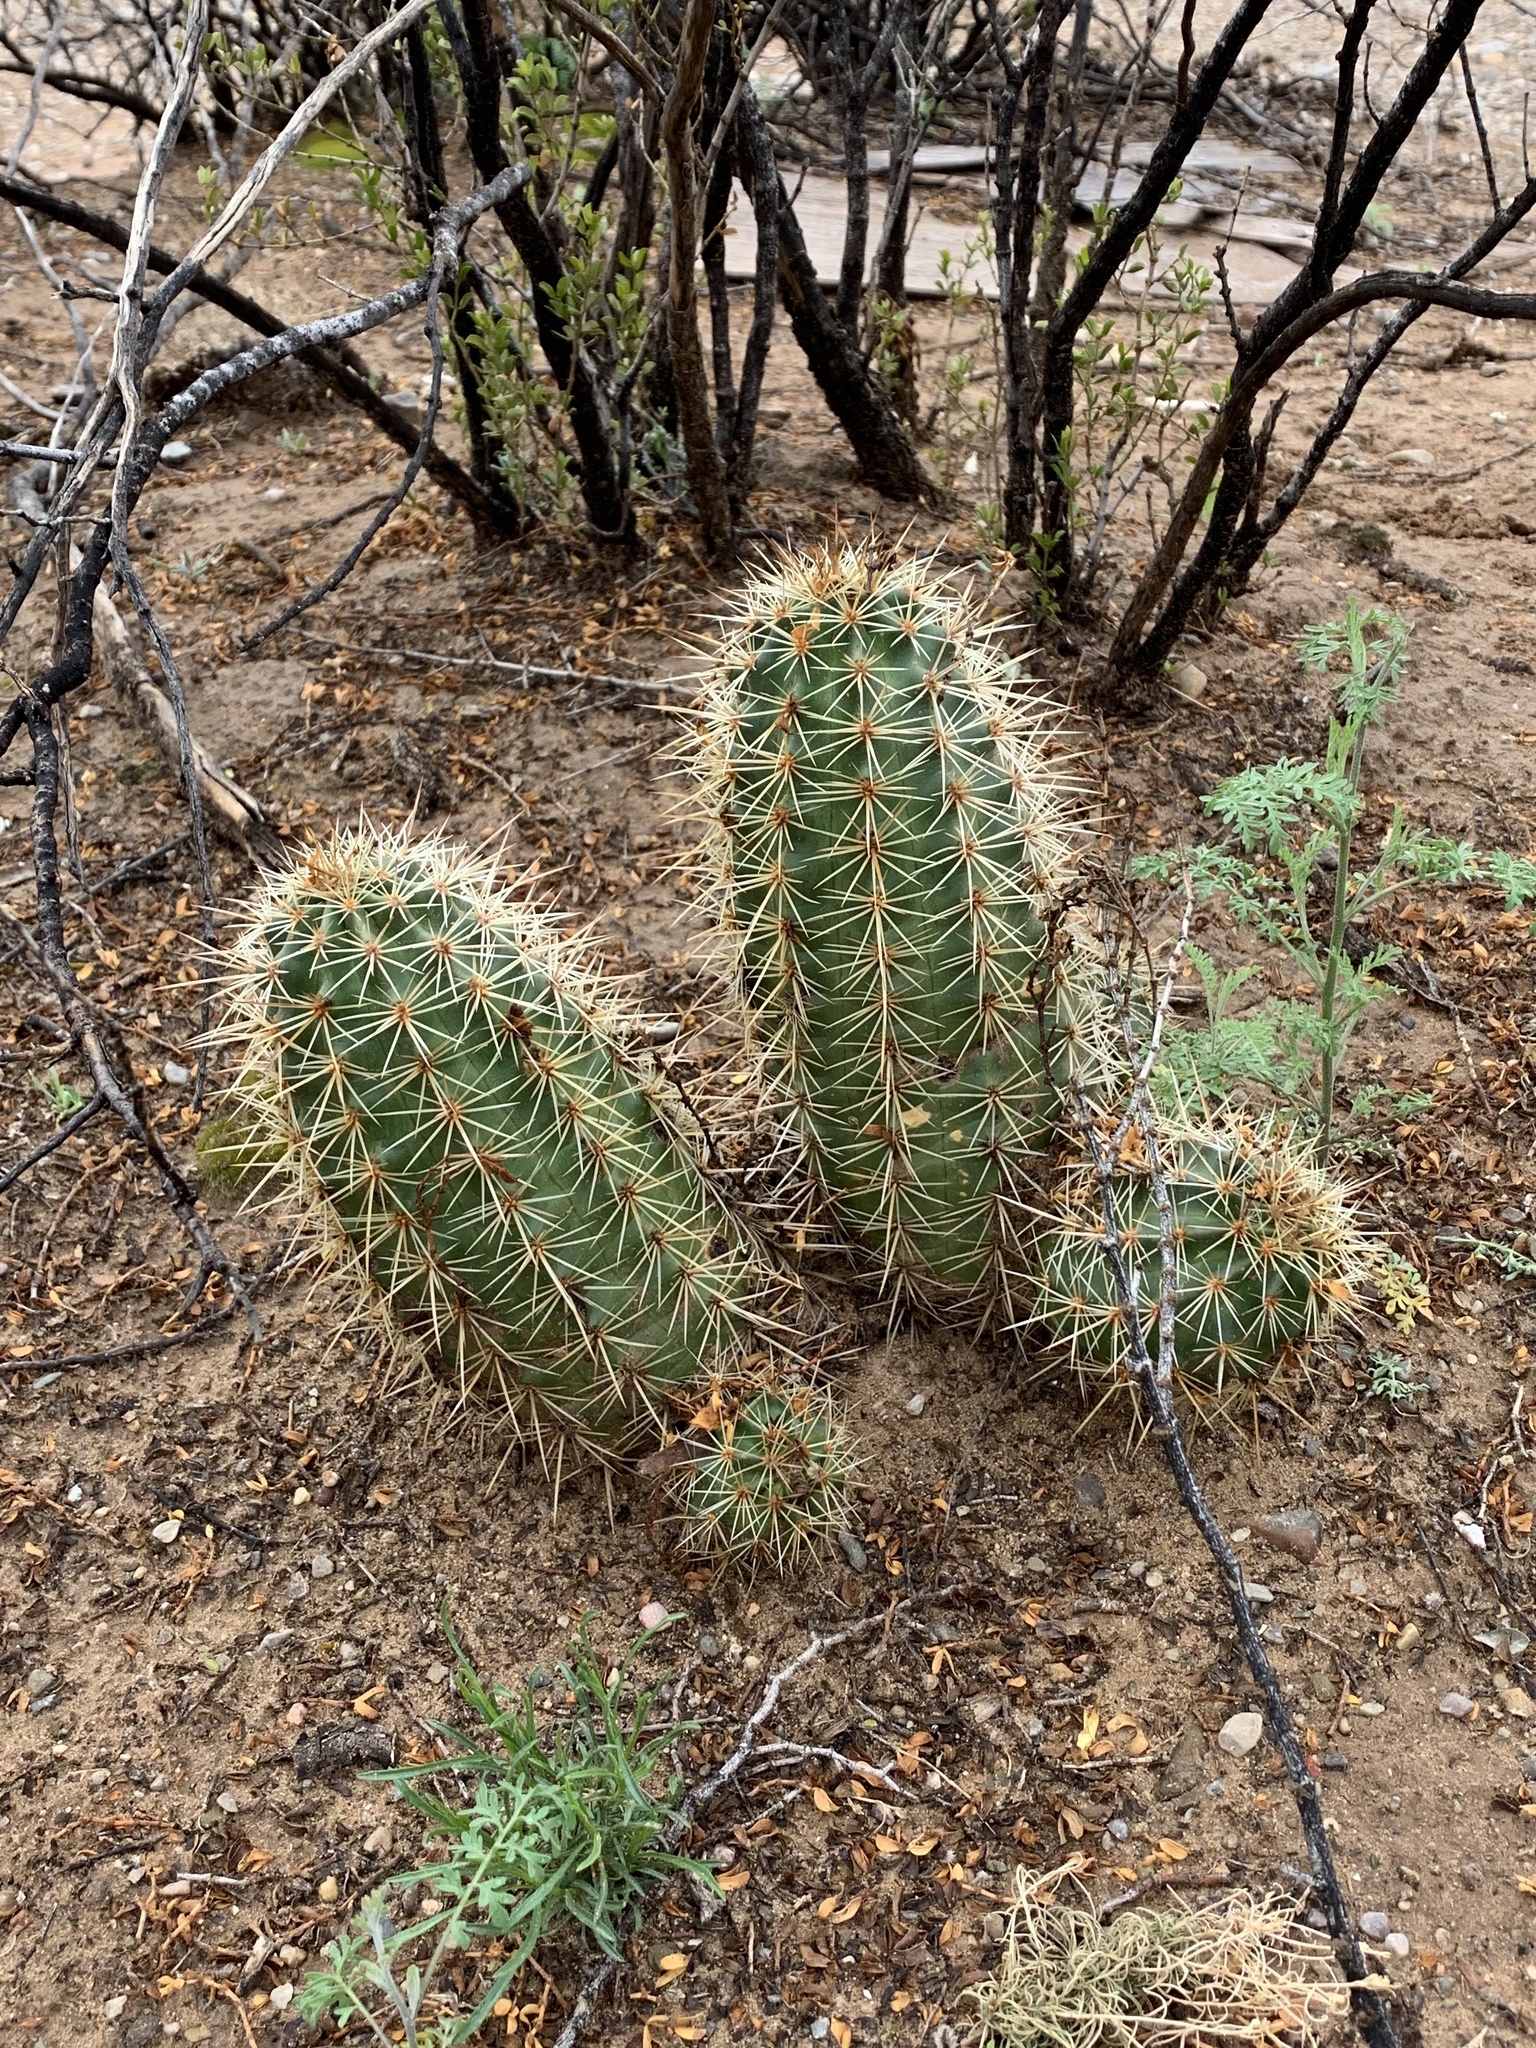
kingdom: Plantae
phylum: Tracheophyta
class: Magnoliopsida
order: Caryophyllales
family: Cactaceae
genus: Echinocereus
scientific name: Echinocereus coccineus
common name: Scarlet hedgehog cactus
